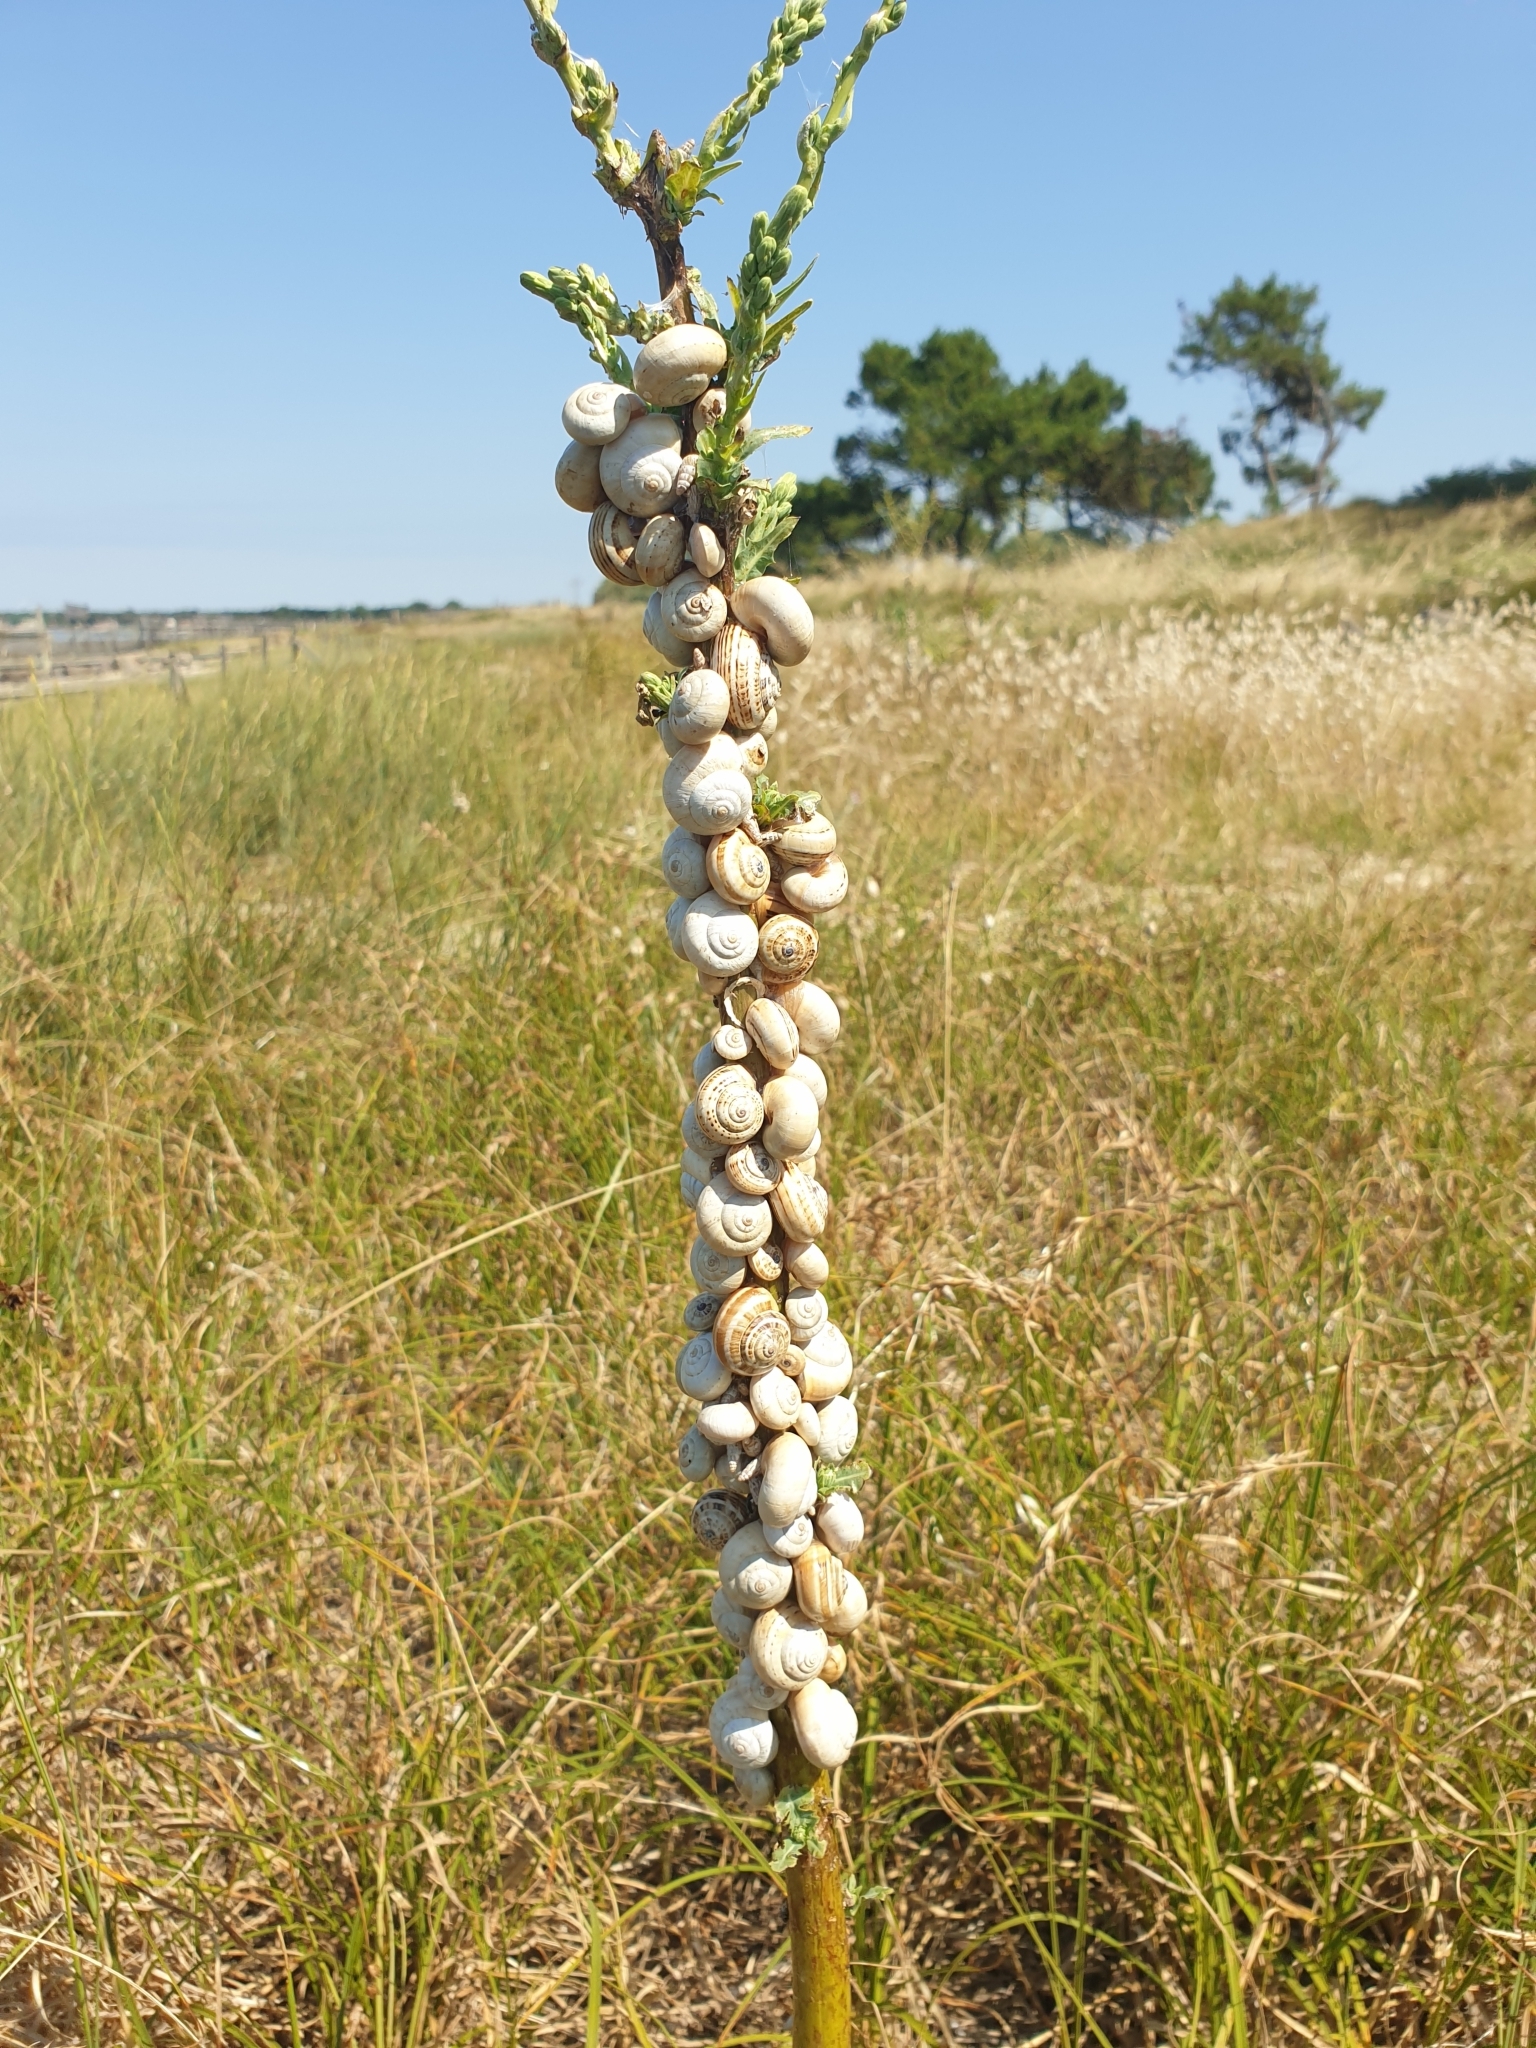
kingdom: Animalia
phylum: Mollusca
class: Gastropoda
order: Stylommatophora
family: Helicidae
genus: Theba
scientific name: Theba pisana
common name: White snail
